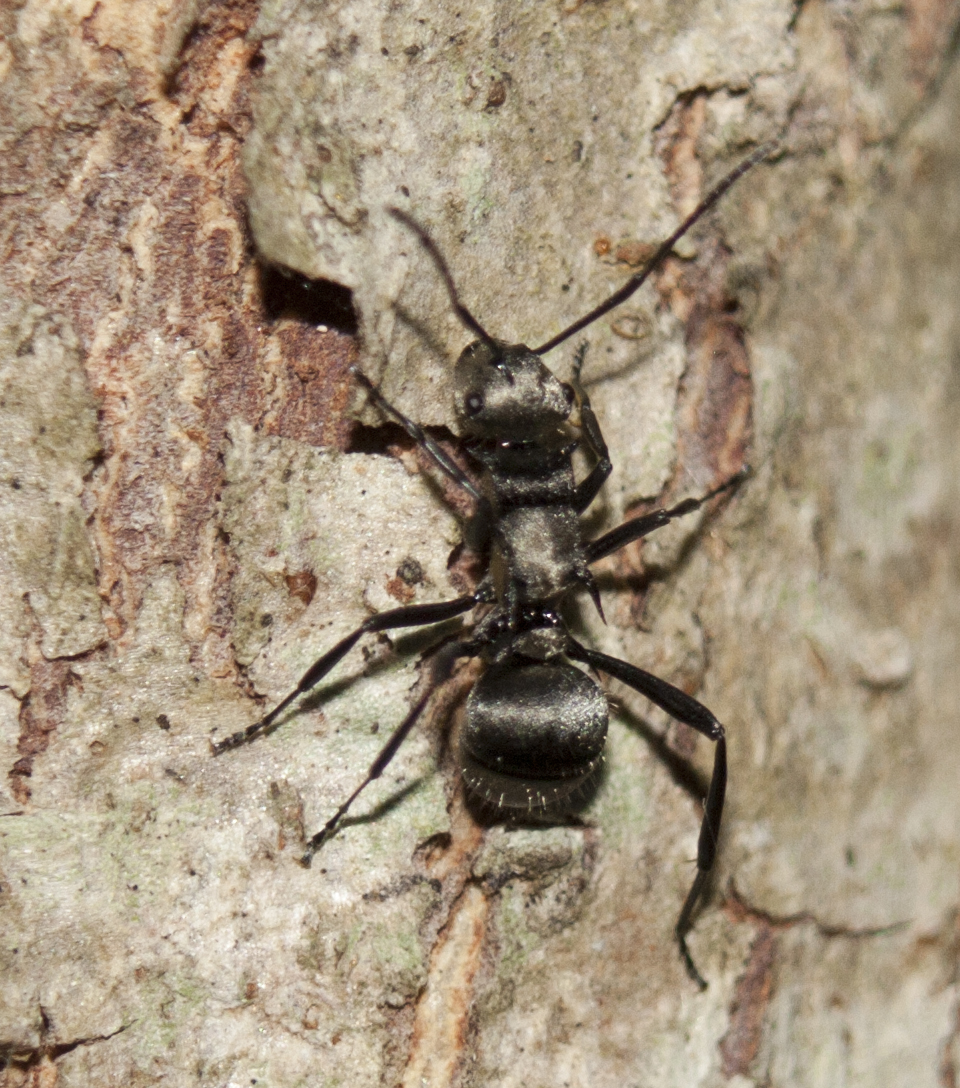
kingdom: Animalia
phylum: Arthropoda
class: Insecta
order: Hymenoptera
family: Formicidae
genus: Polyrhachis
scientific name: Polyrhachis daemeli
